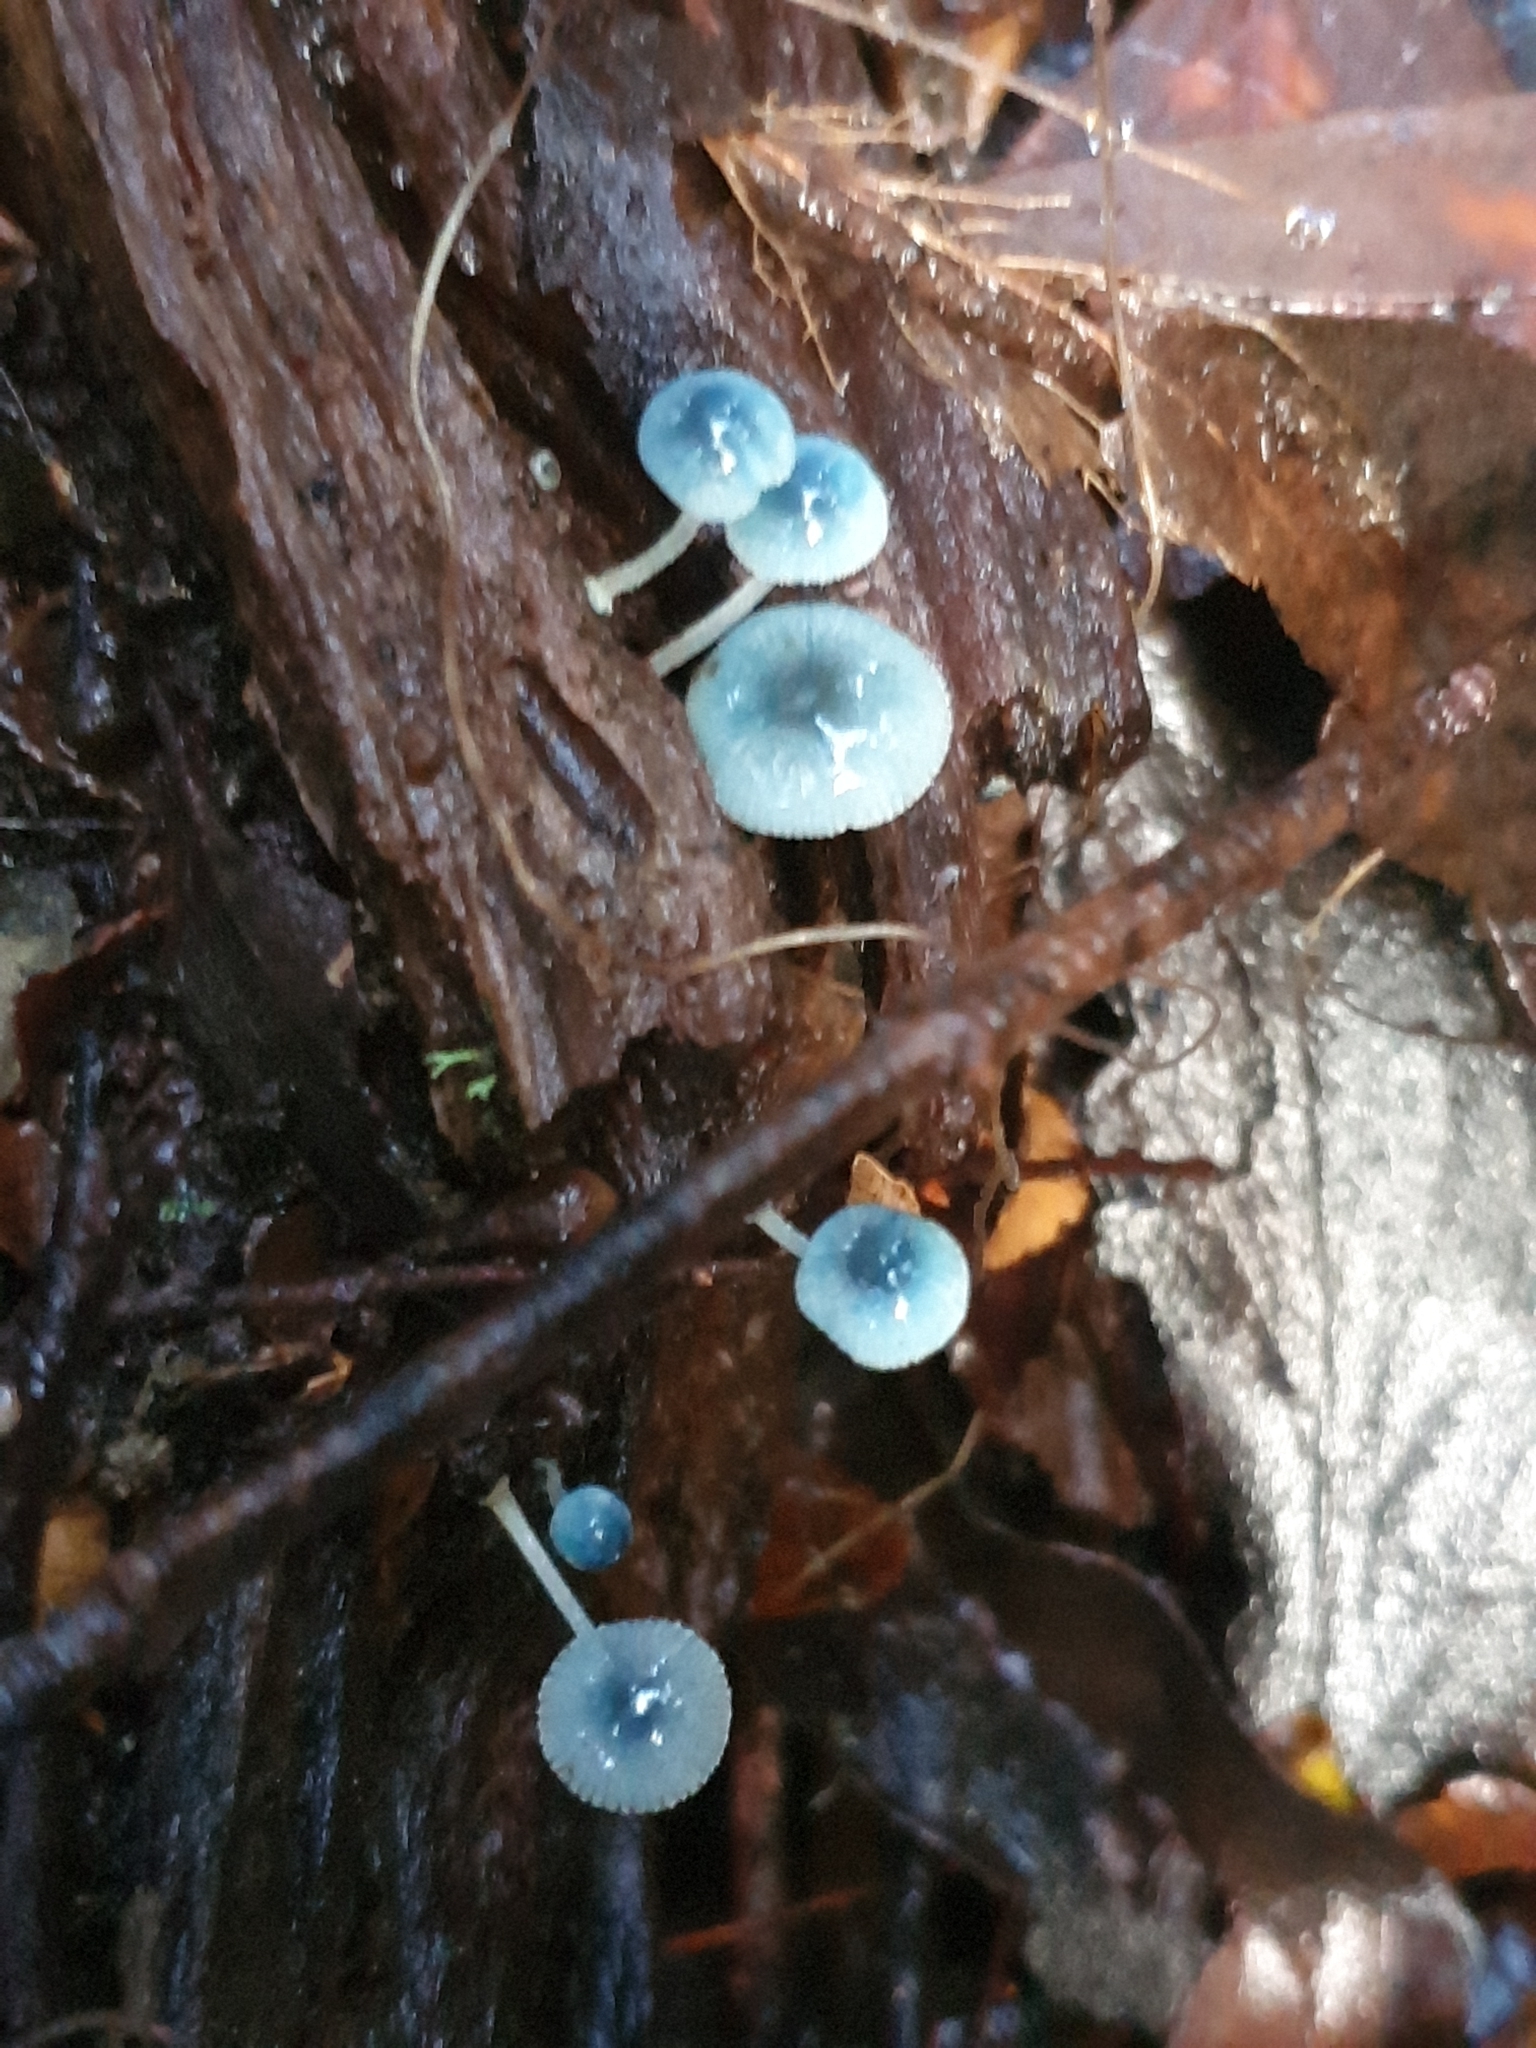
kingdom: Fungi
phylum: Basidiomycota
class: Agaricomycetes
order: Agaricales
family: Mycenaceae
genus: Mycena
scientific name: Mycena interrupta
